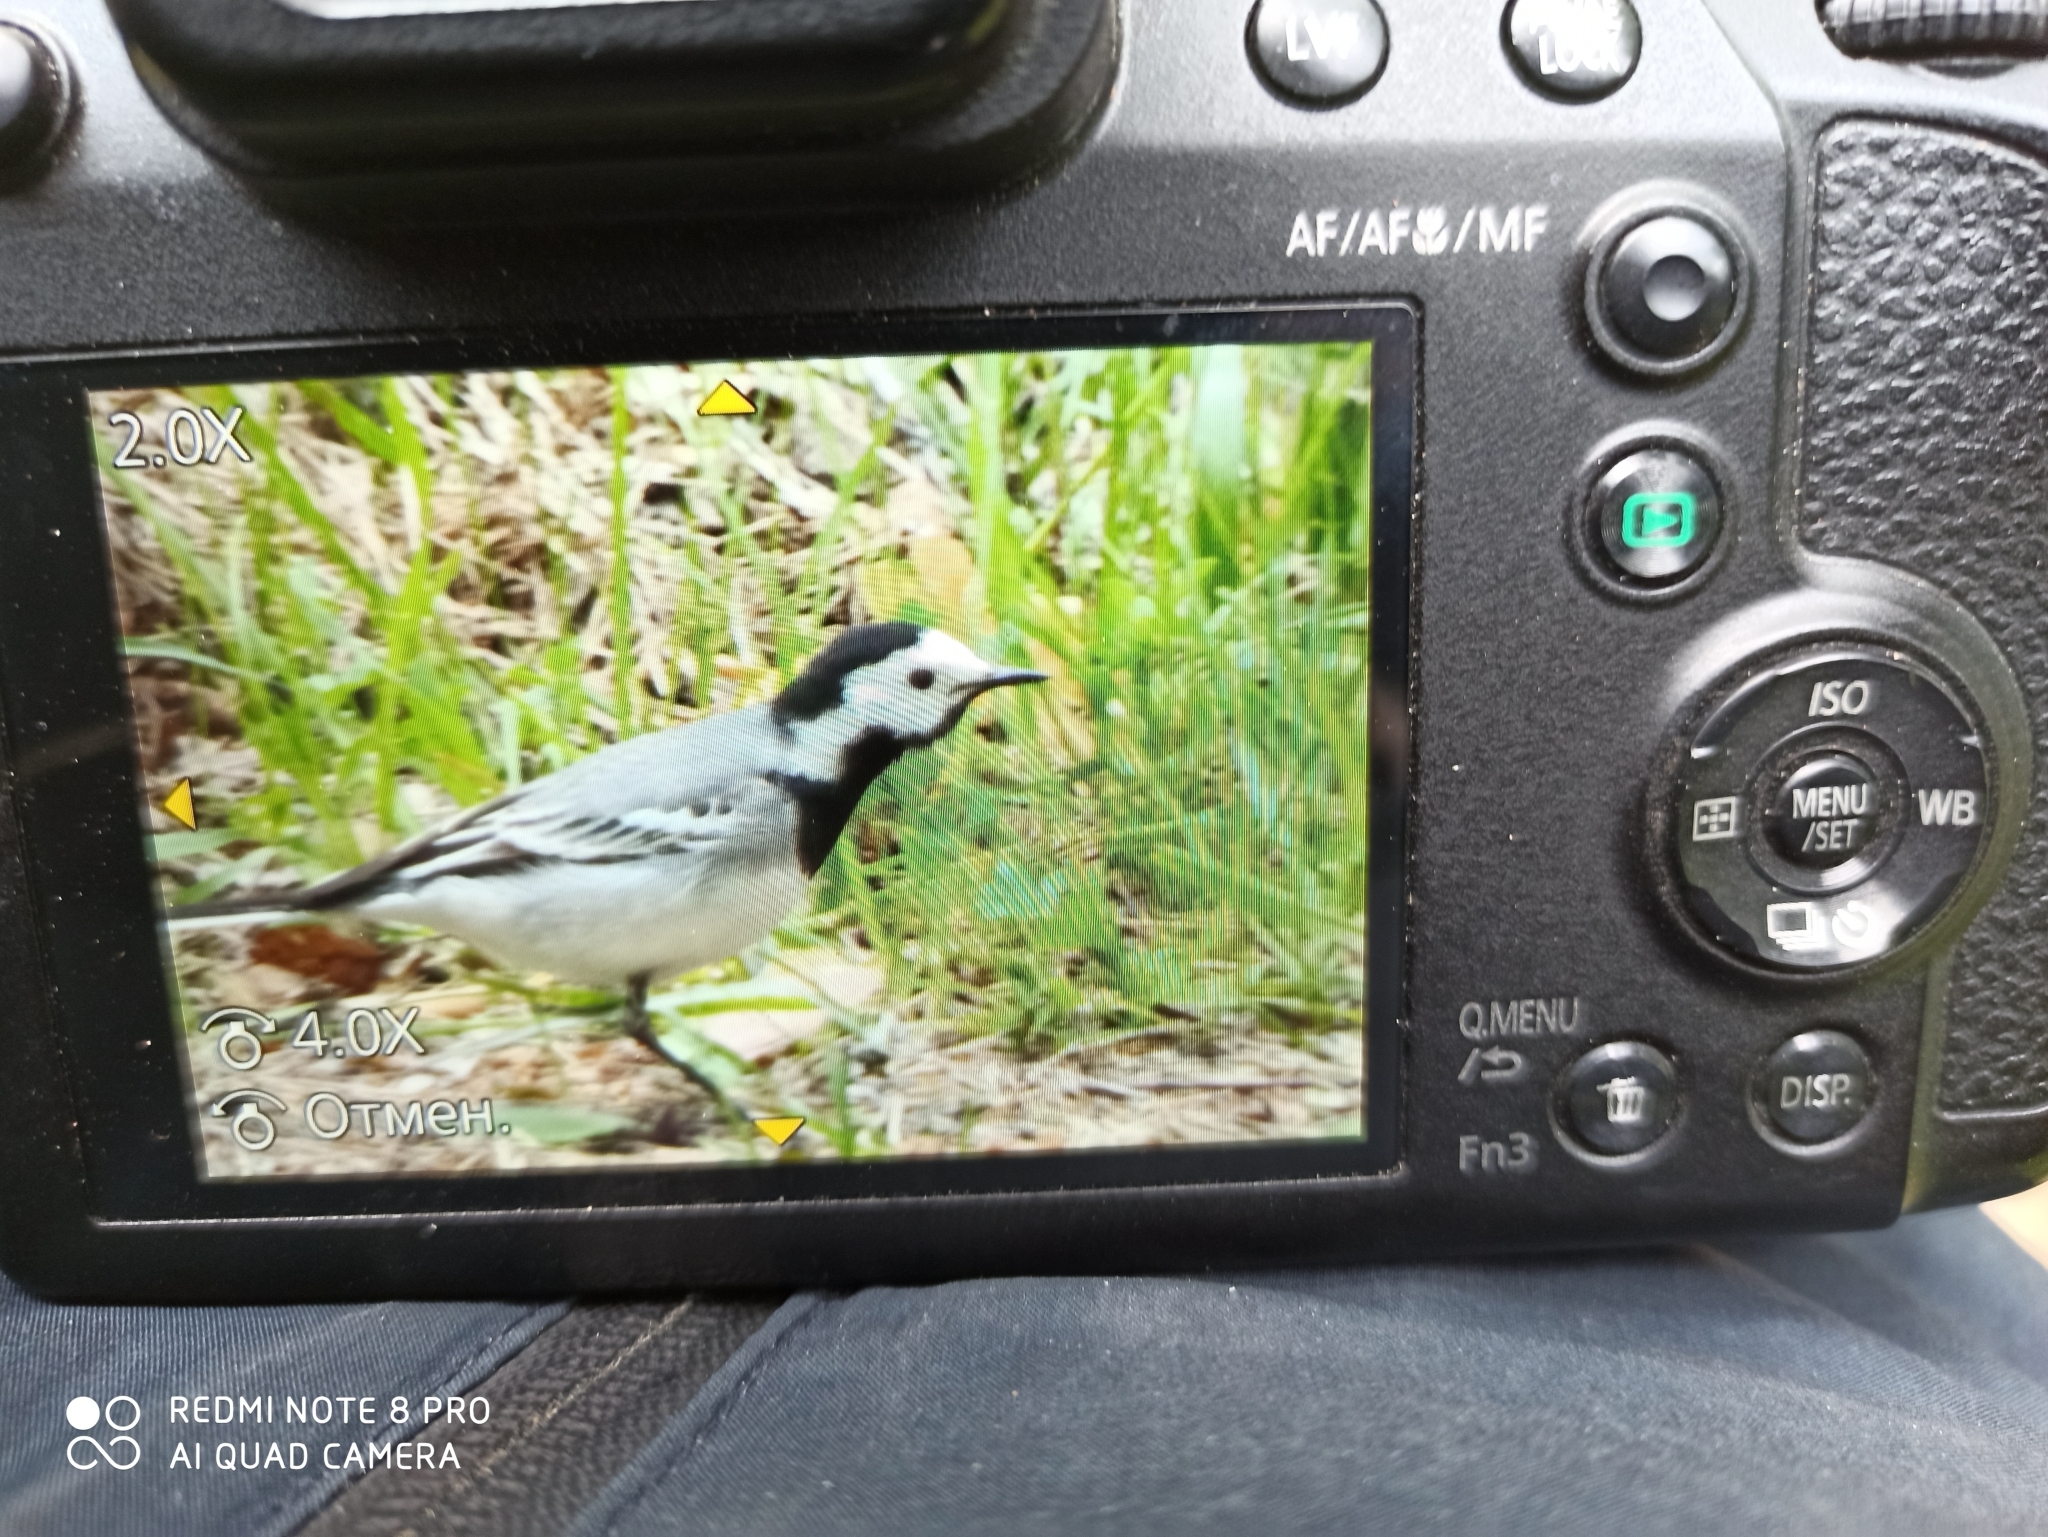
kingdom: Animalia
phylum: Chordata
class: Aves
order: Passeriformes
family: Motacillidae
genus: Motacilla
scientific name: Motacilla alba
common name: White wagtail
